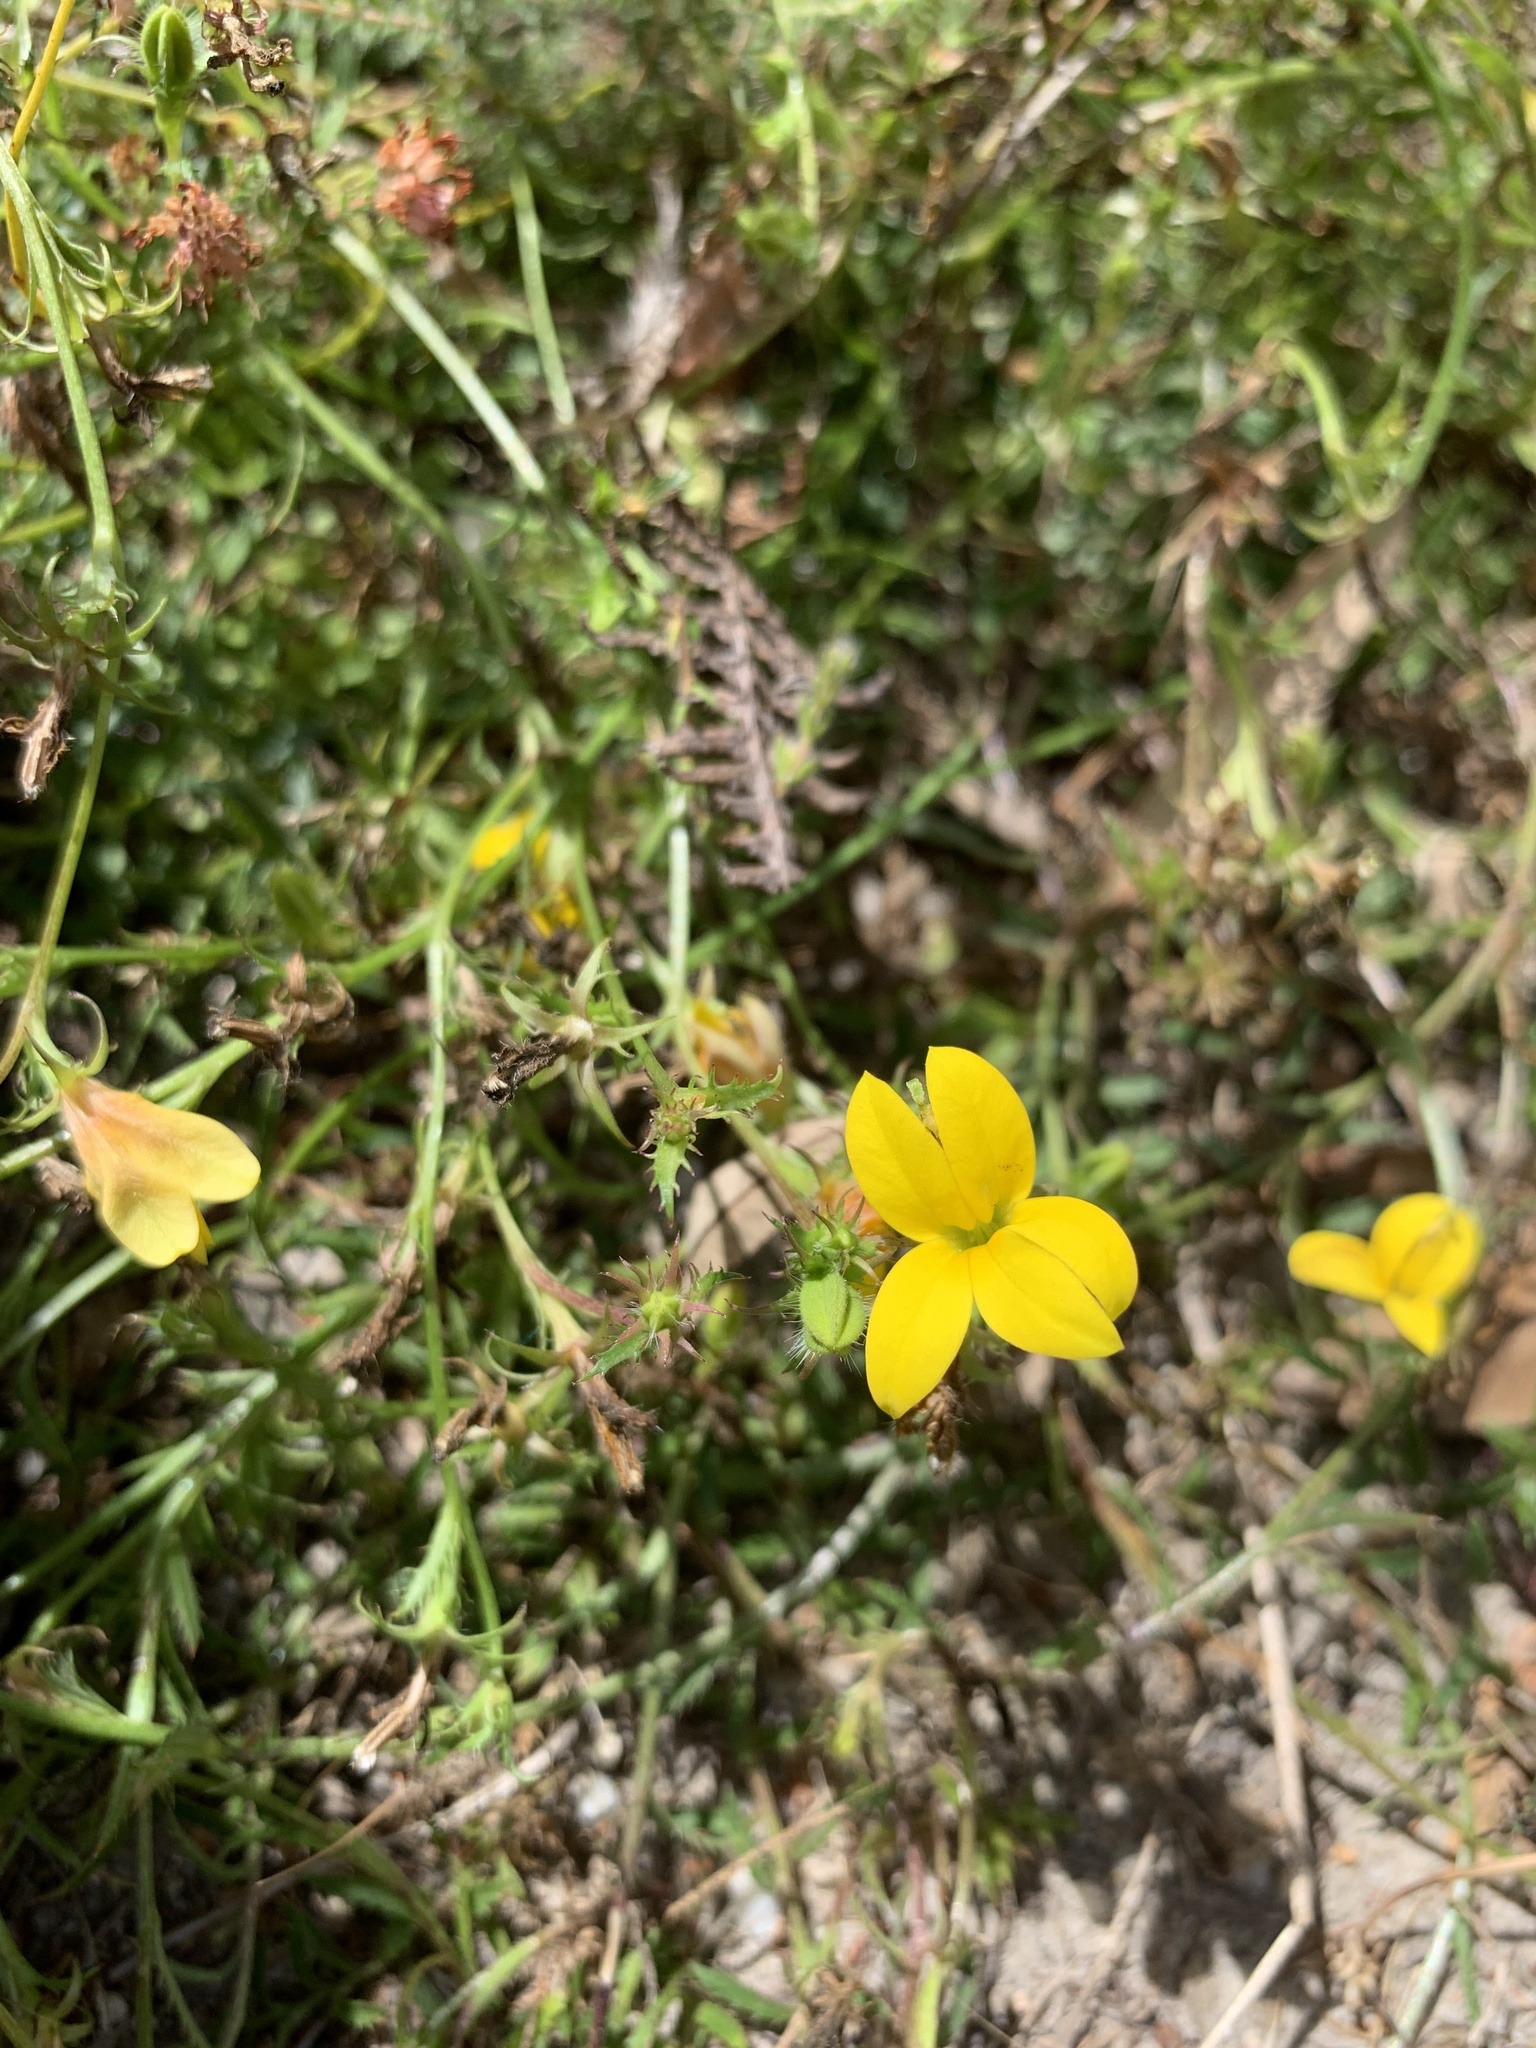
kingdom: Plantae
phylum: Tracheophyta
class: Magnoliopsida
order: Asterales
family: Campanulaceae
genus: Monopsis
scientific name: Monopsis lutea
